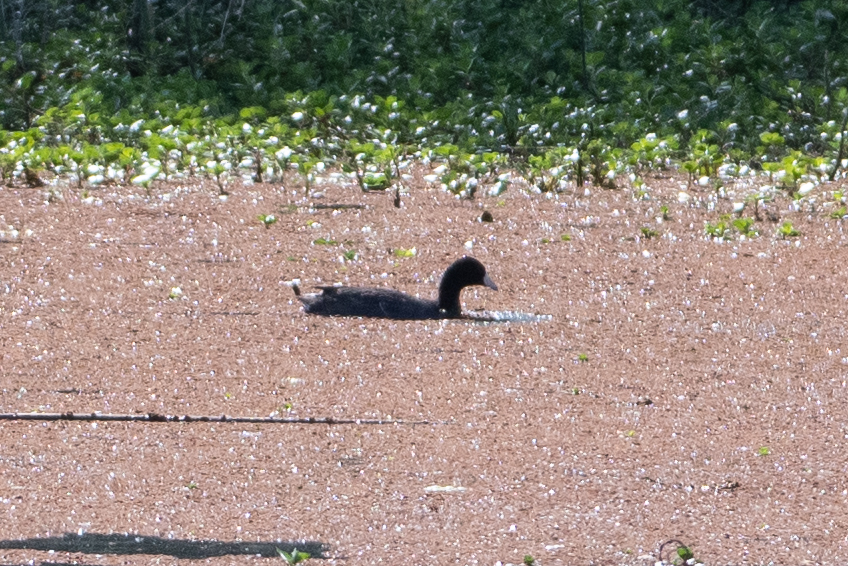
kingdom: Animalia
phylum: Chordata
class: Aves
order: Gruiformes
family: Rallidae
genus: Fulica
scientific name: Fulica americana
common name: American coot
